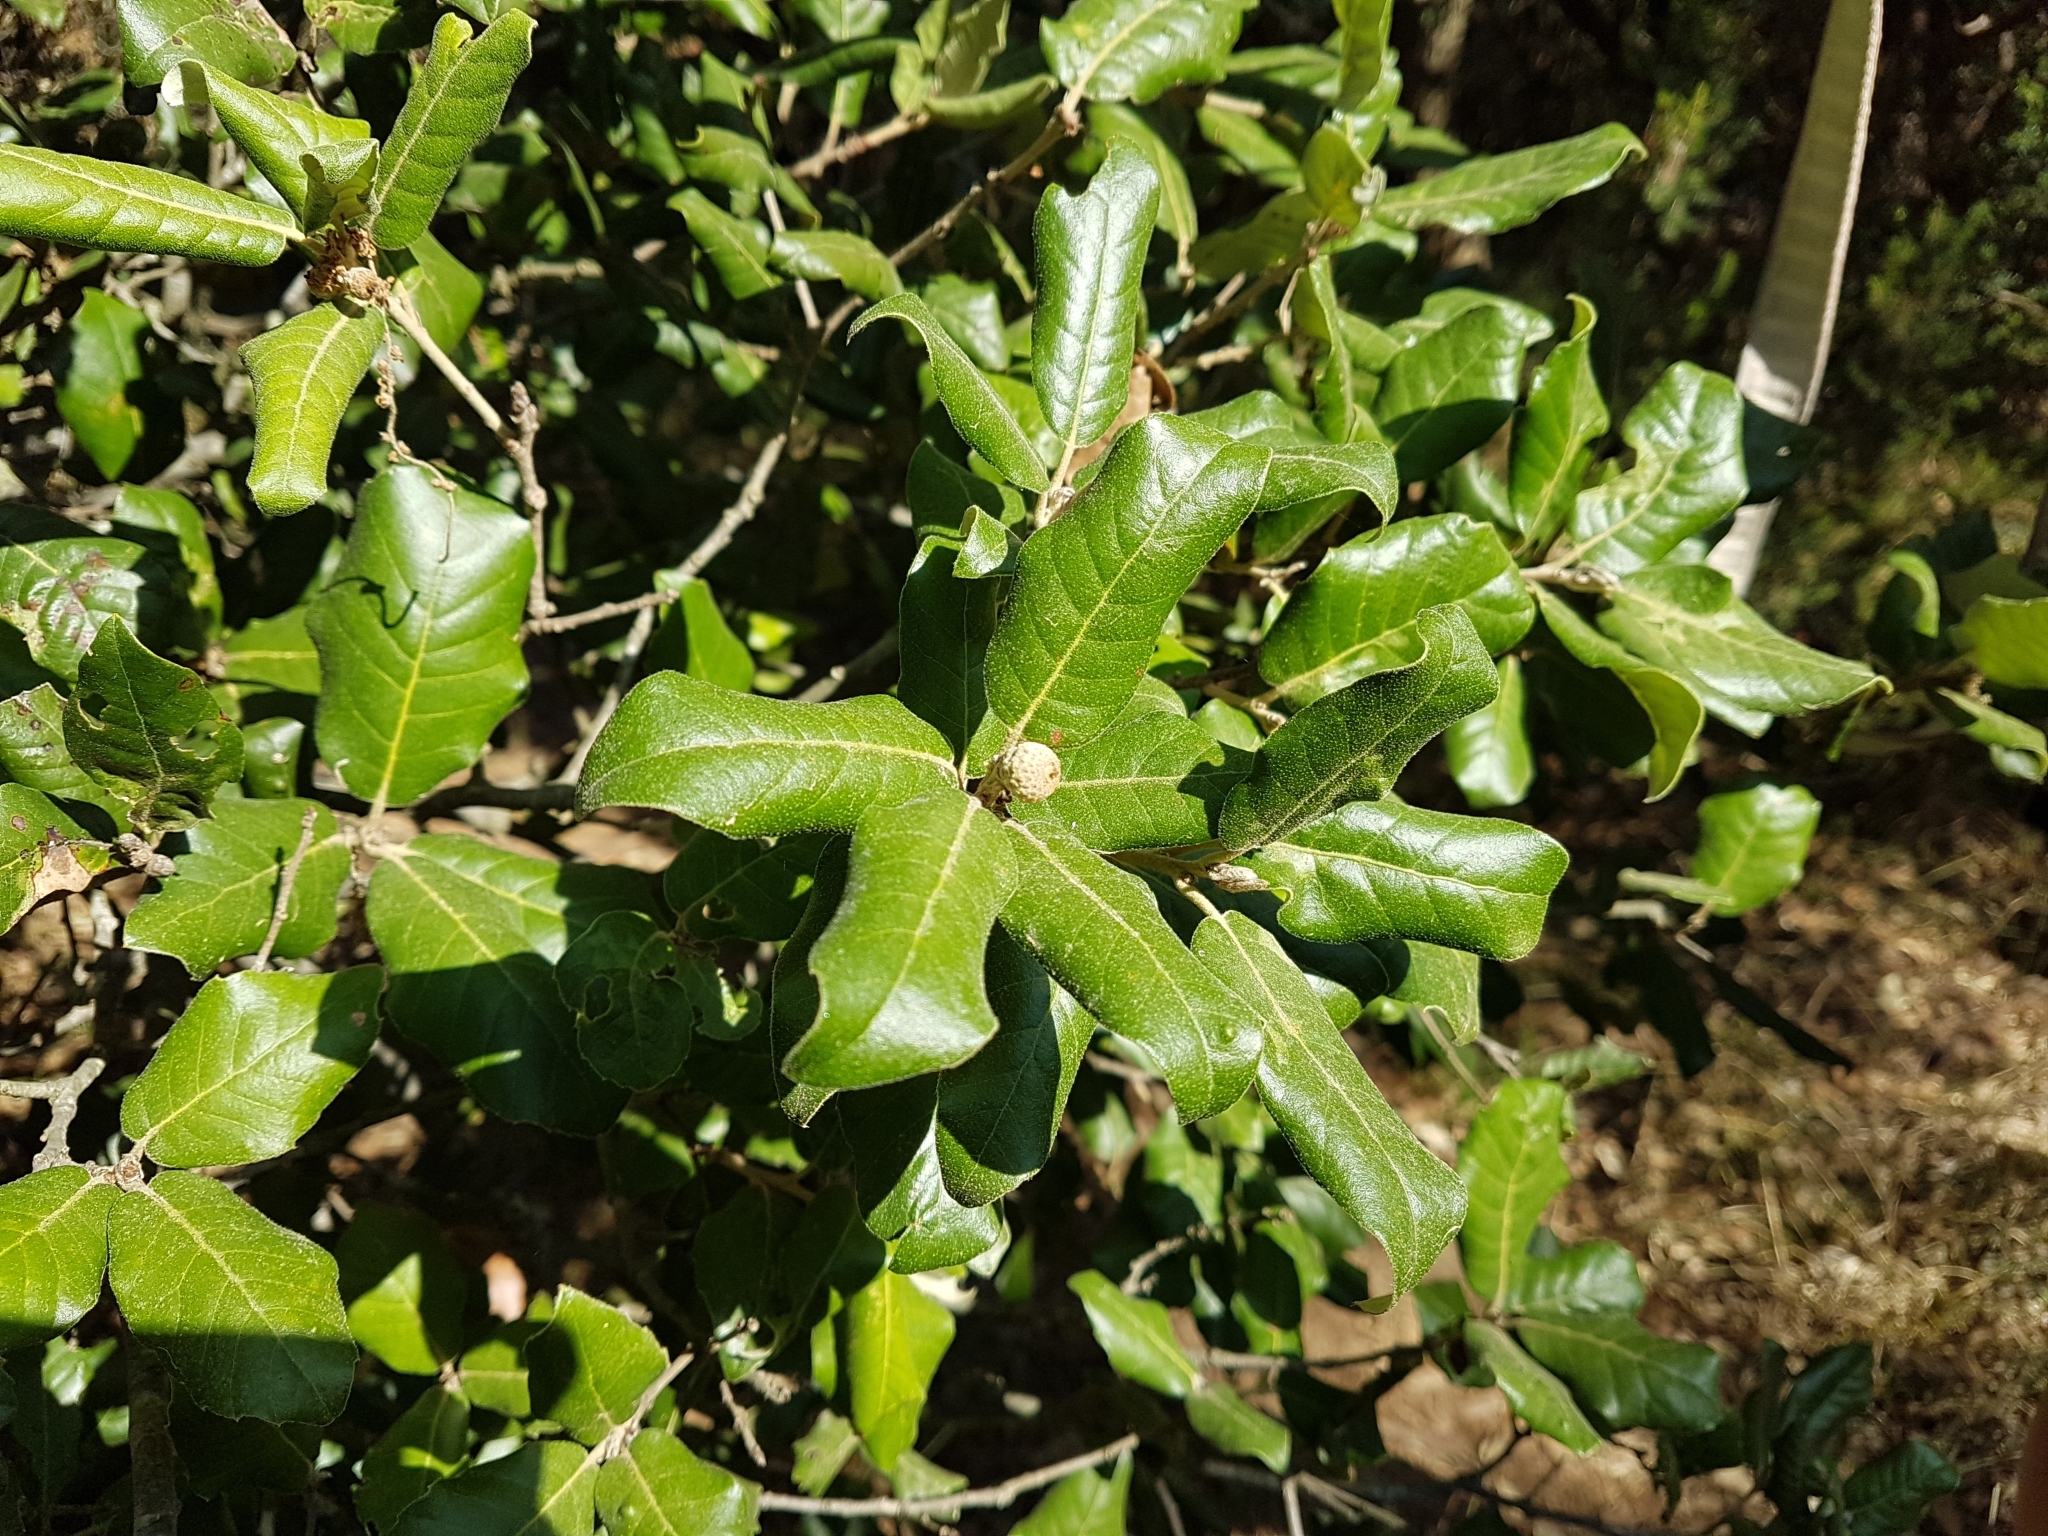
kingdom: Plantae
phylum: Tracheophyta
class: Magnoliopsida
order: Fagales
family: Fagaceae
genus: Quercus
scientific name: Quercus ilex
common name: Evergreen oak
